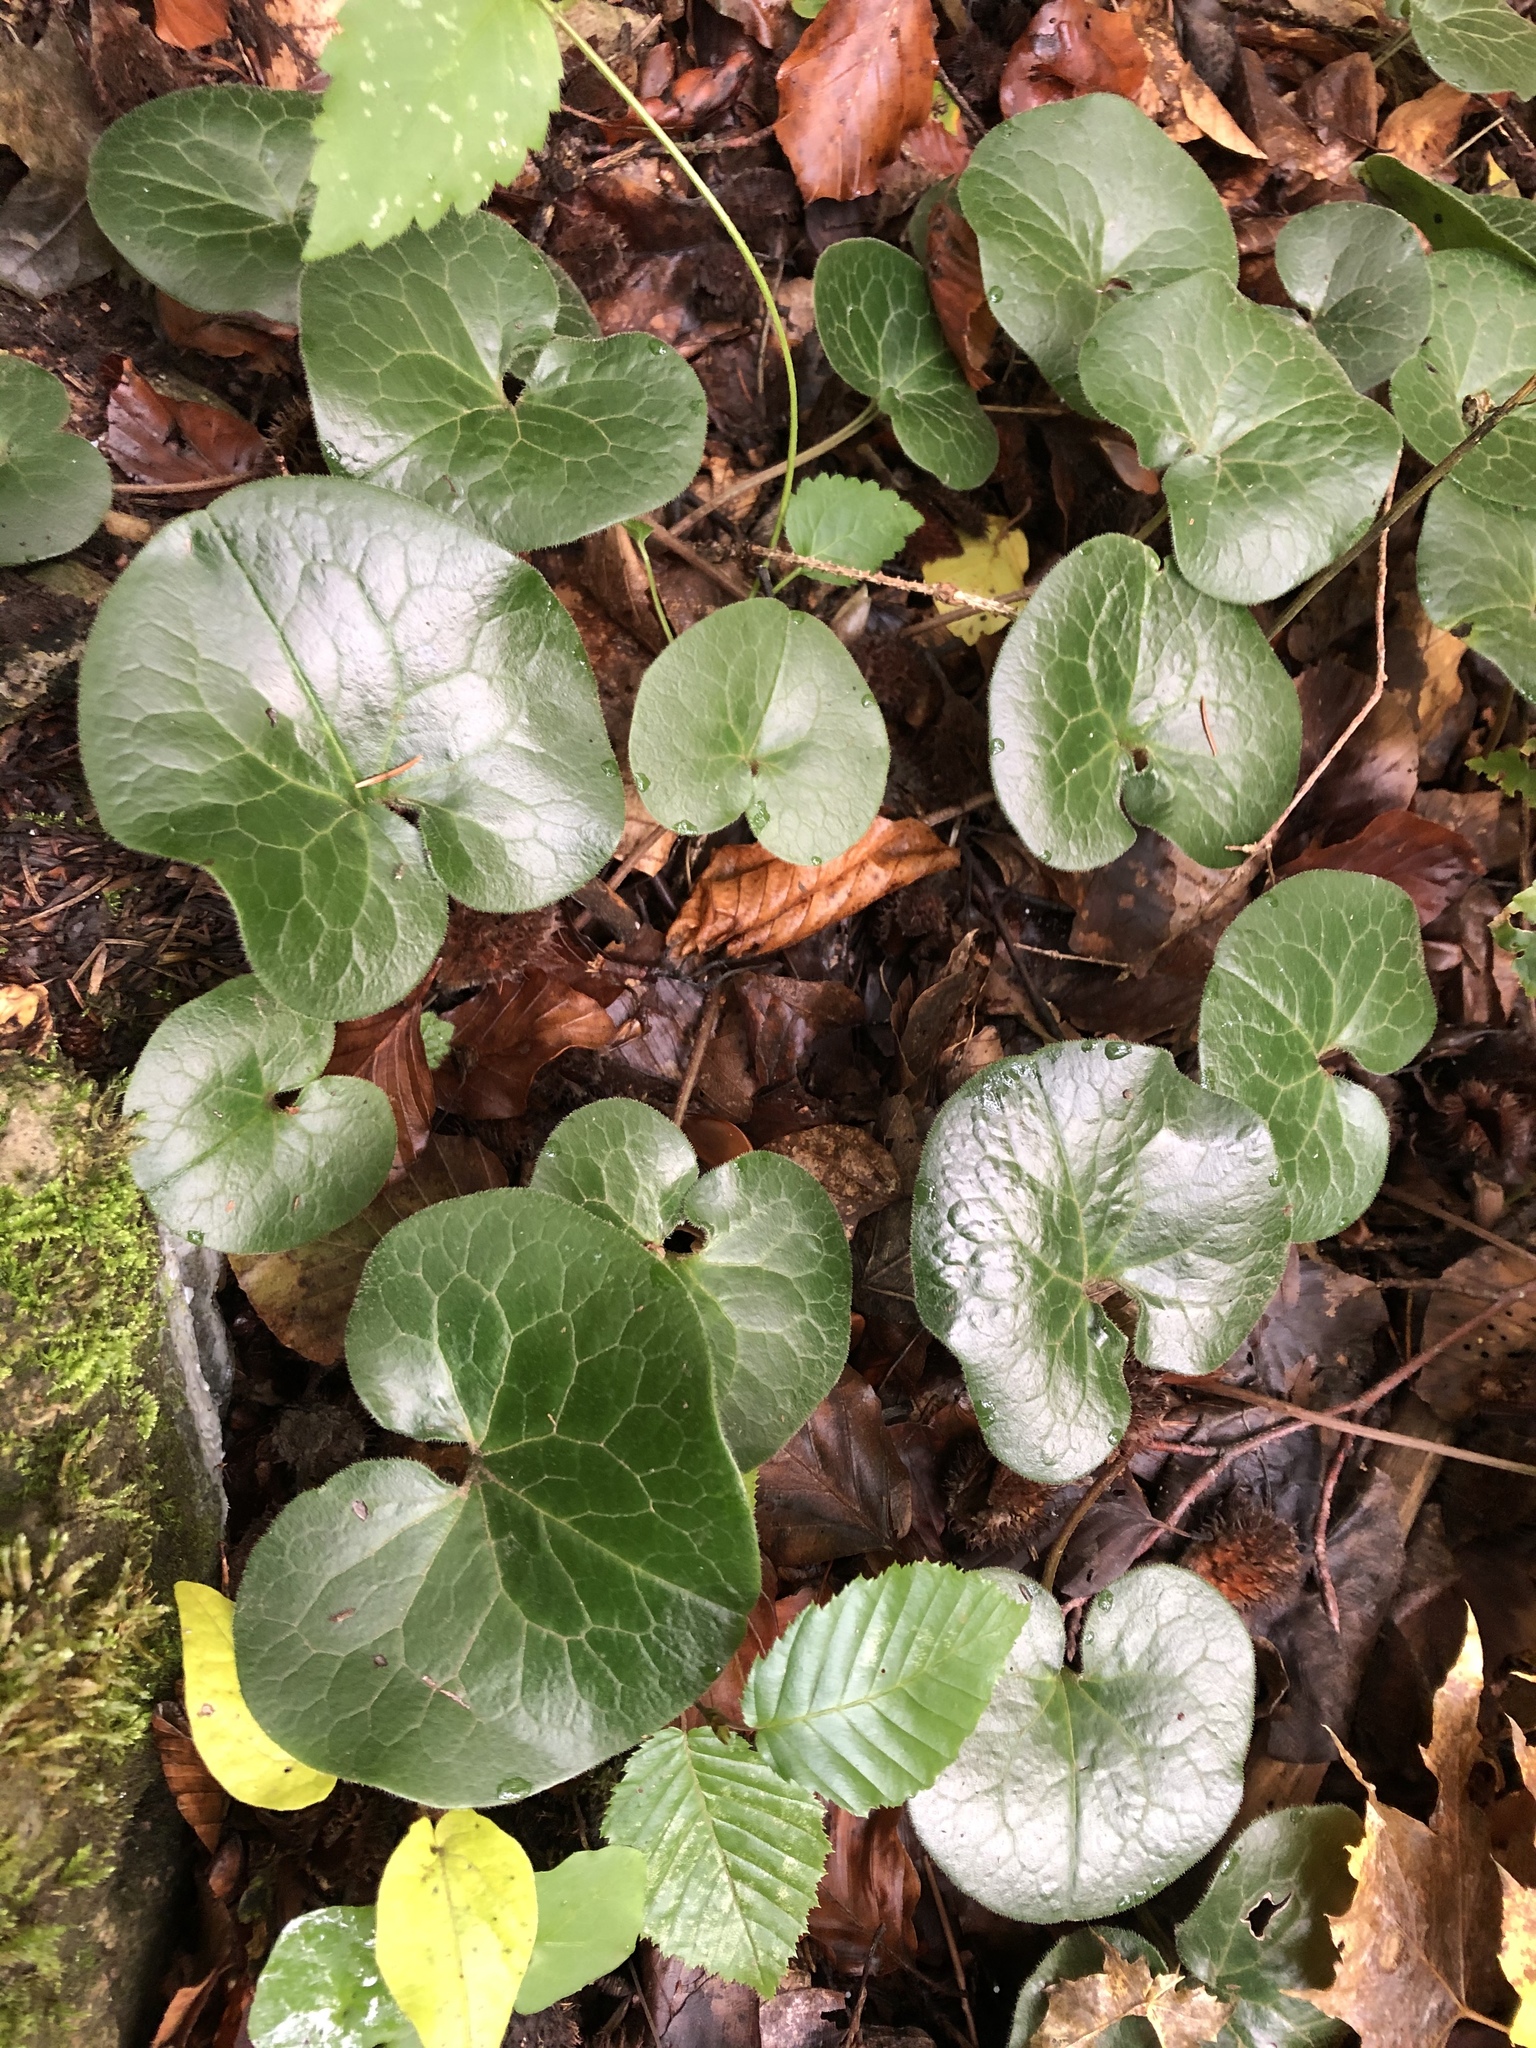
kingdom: Plantae
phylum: Tracheophyta
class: Magnoliopsida
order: Piperales
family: Aristolochiaceae
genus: Asarum
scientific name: Asarum europaeum
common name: Asarabacca
